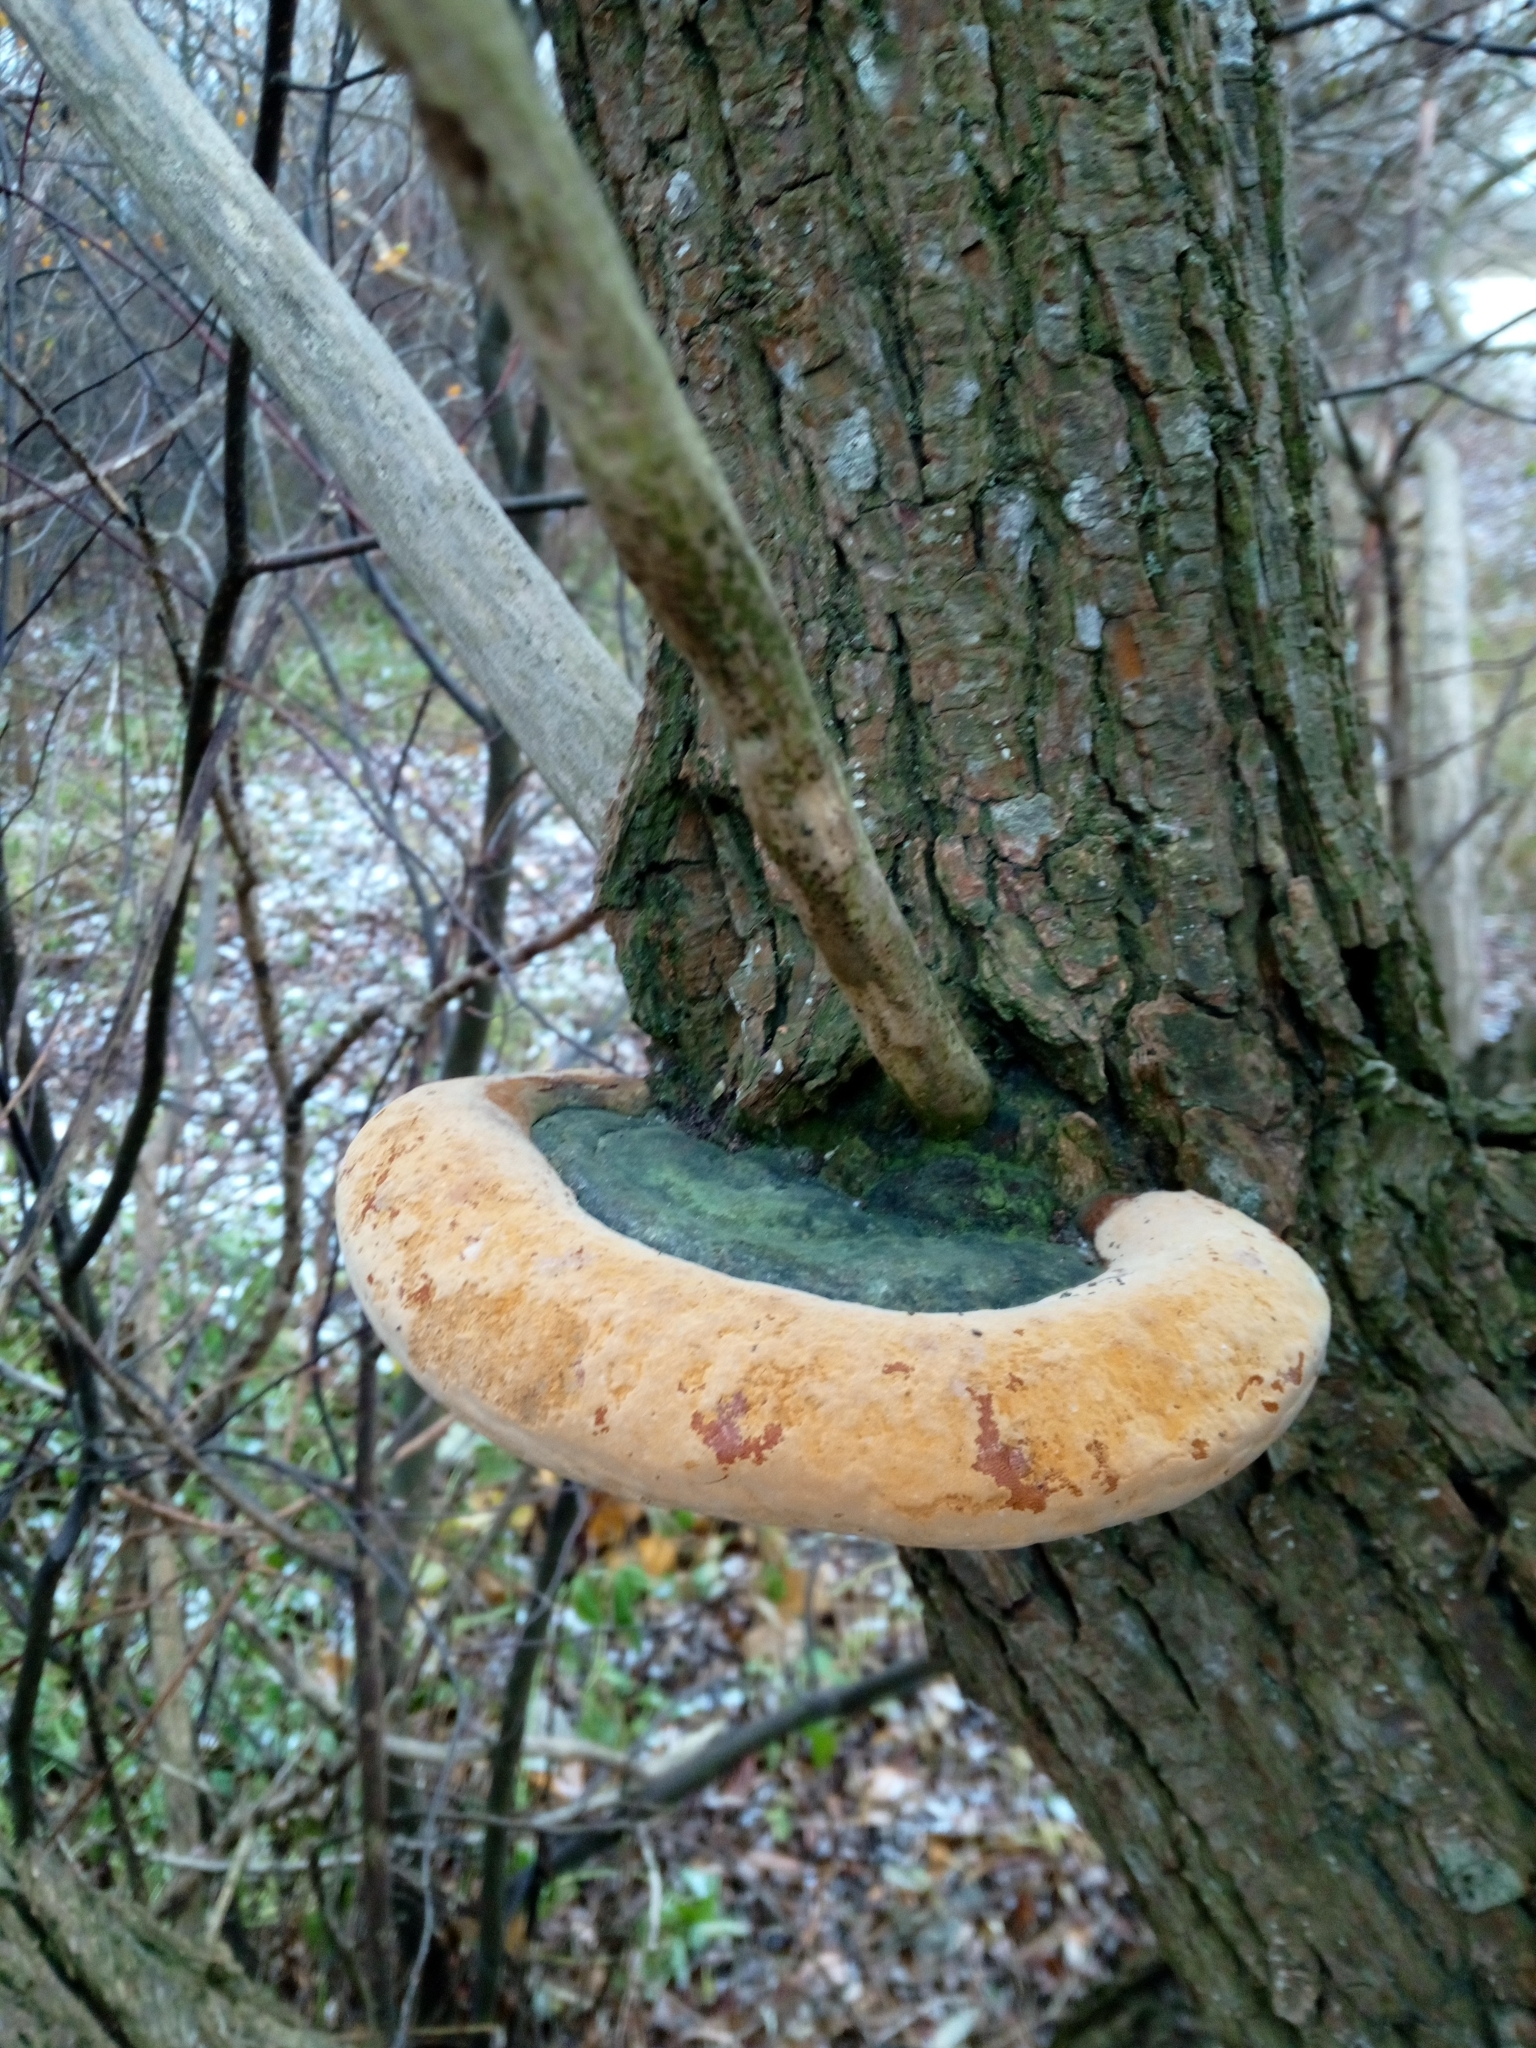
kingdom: Fungi
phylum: Basidiomycota
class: Agaricomycetes
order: Hymenochaetales
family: Hymenochaetaceae
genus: Phellinus
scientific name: Phellinus igniarius
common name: Willow bracket
